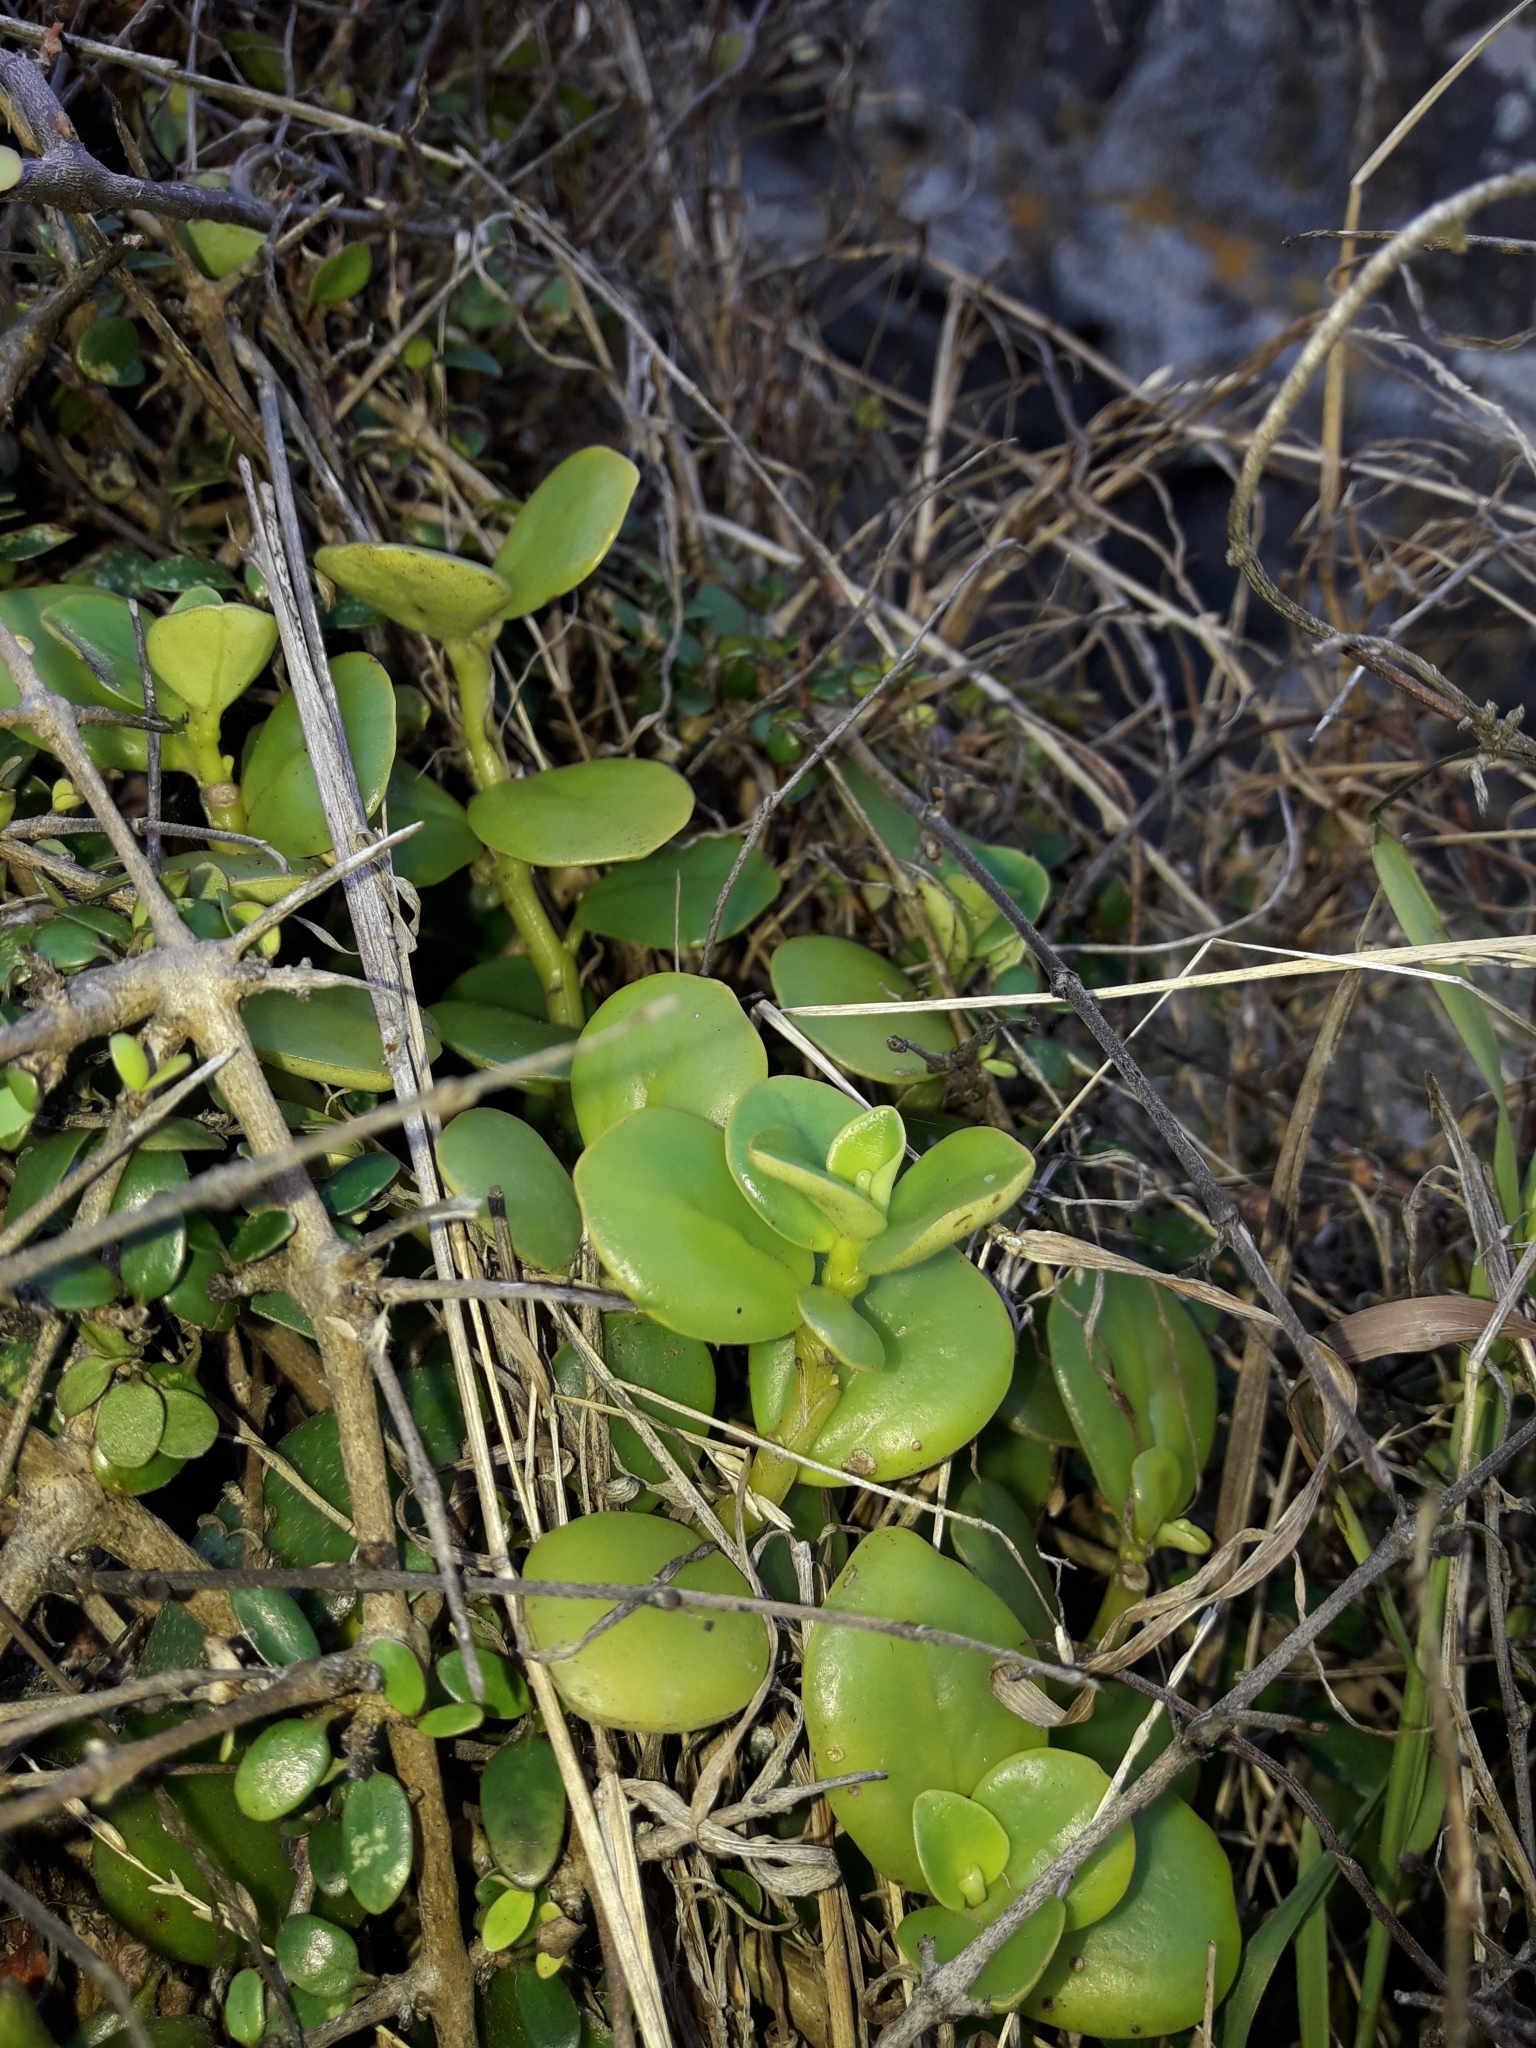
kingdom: Plantae
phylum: Tracheophyta
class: Magnoliopsida
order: Piperales
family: Piperaceae
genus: Peperomia
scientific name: Peperomia urvilleana
